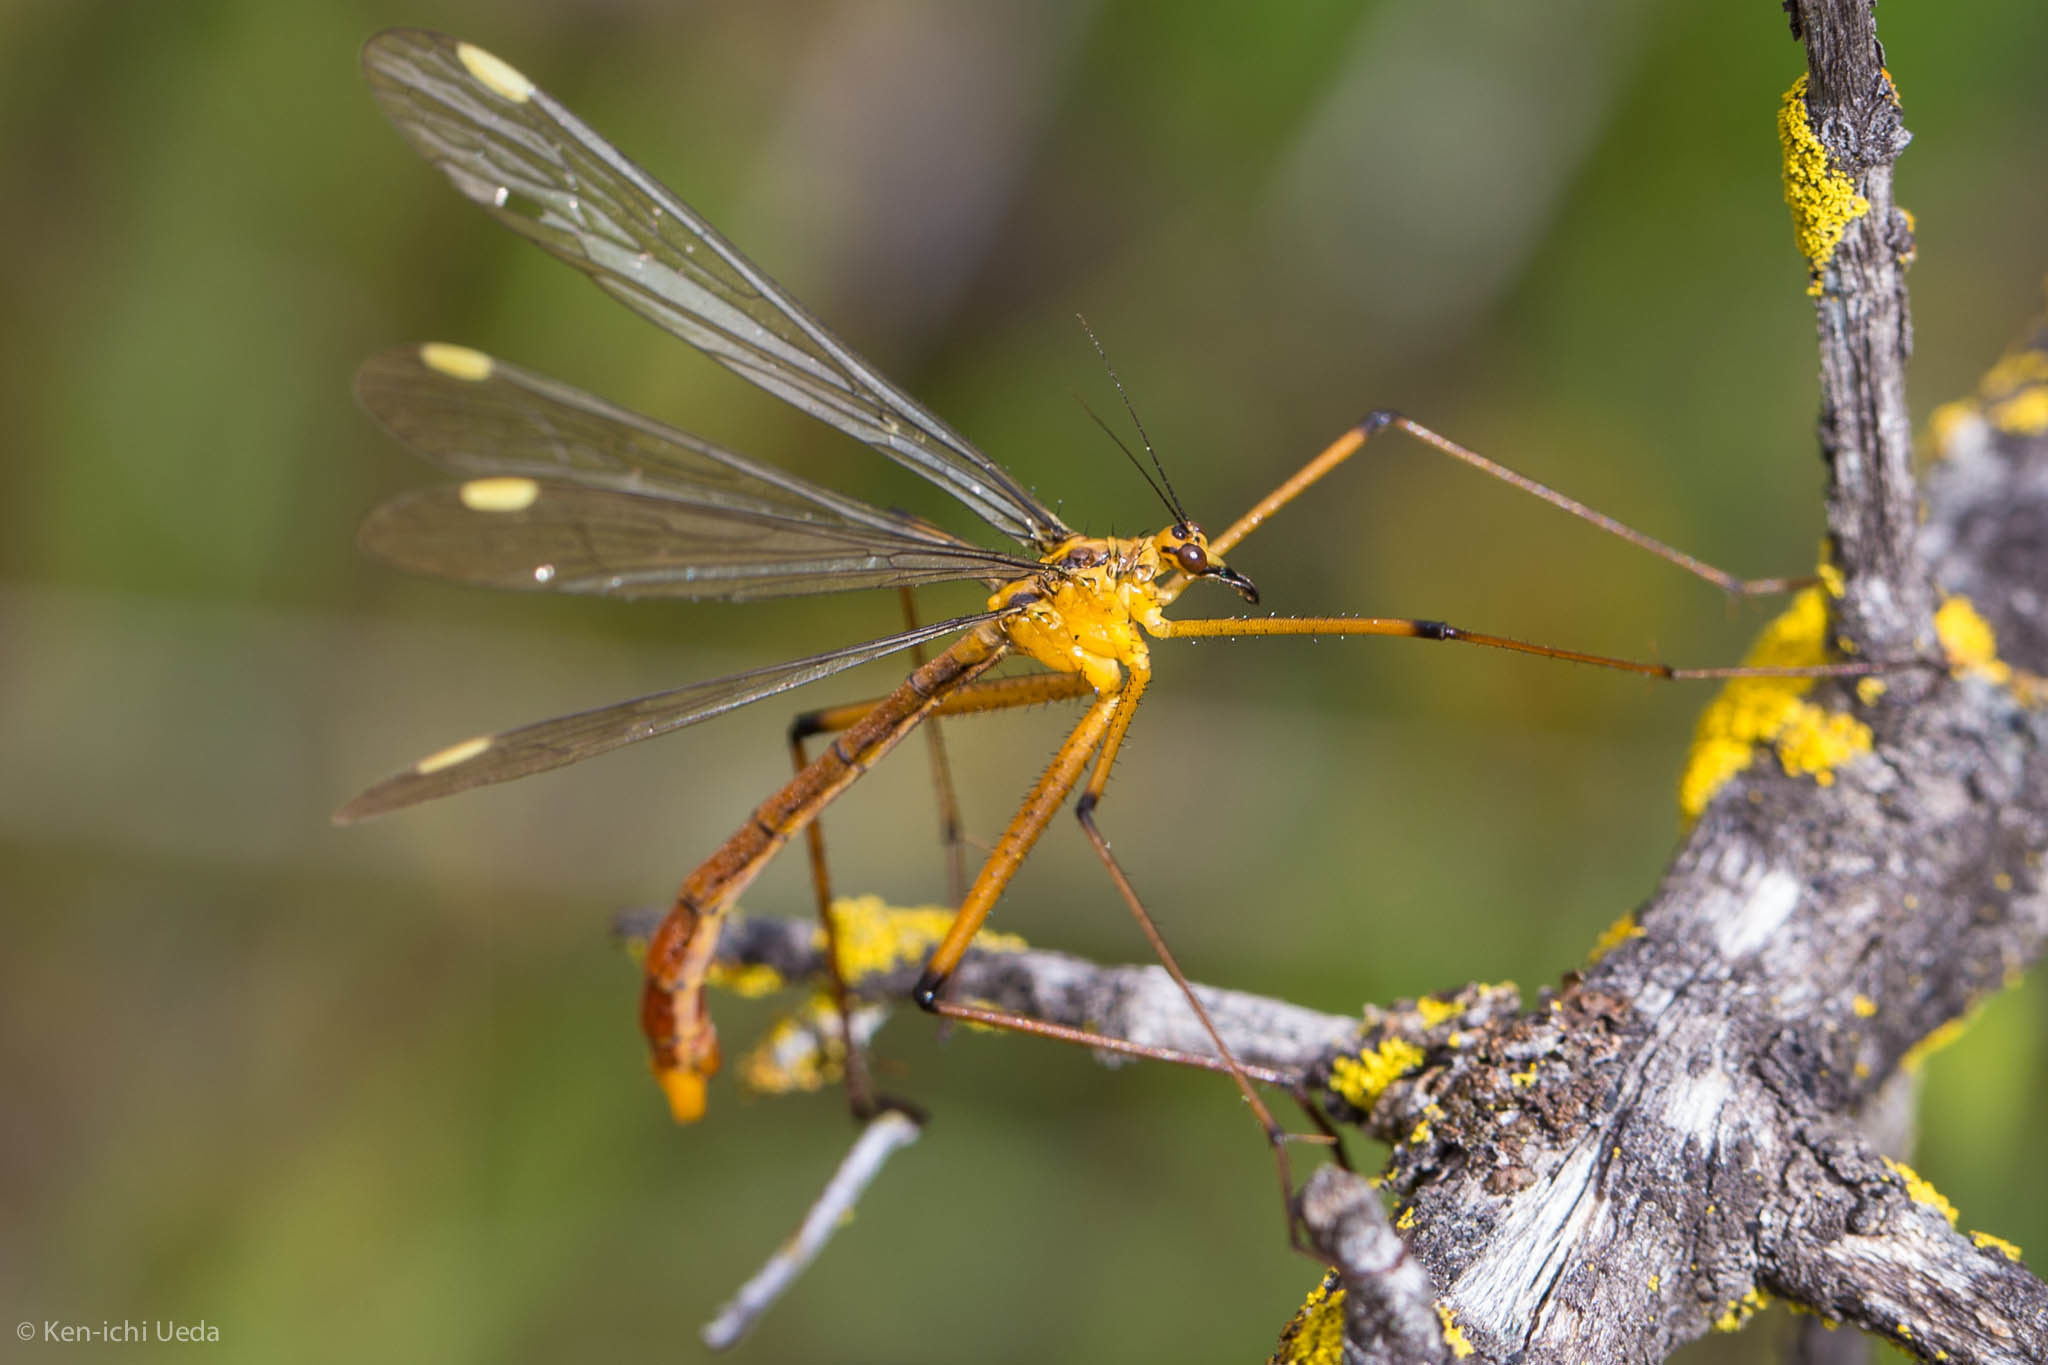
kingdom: Animalia
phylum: Arthropoda
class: Insecta
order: Mecoptera
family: Bittacidae
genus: Bittacus
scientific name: Bittacus chlorostigma
